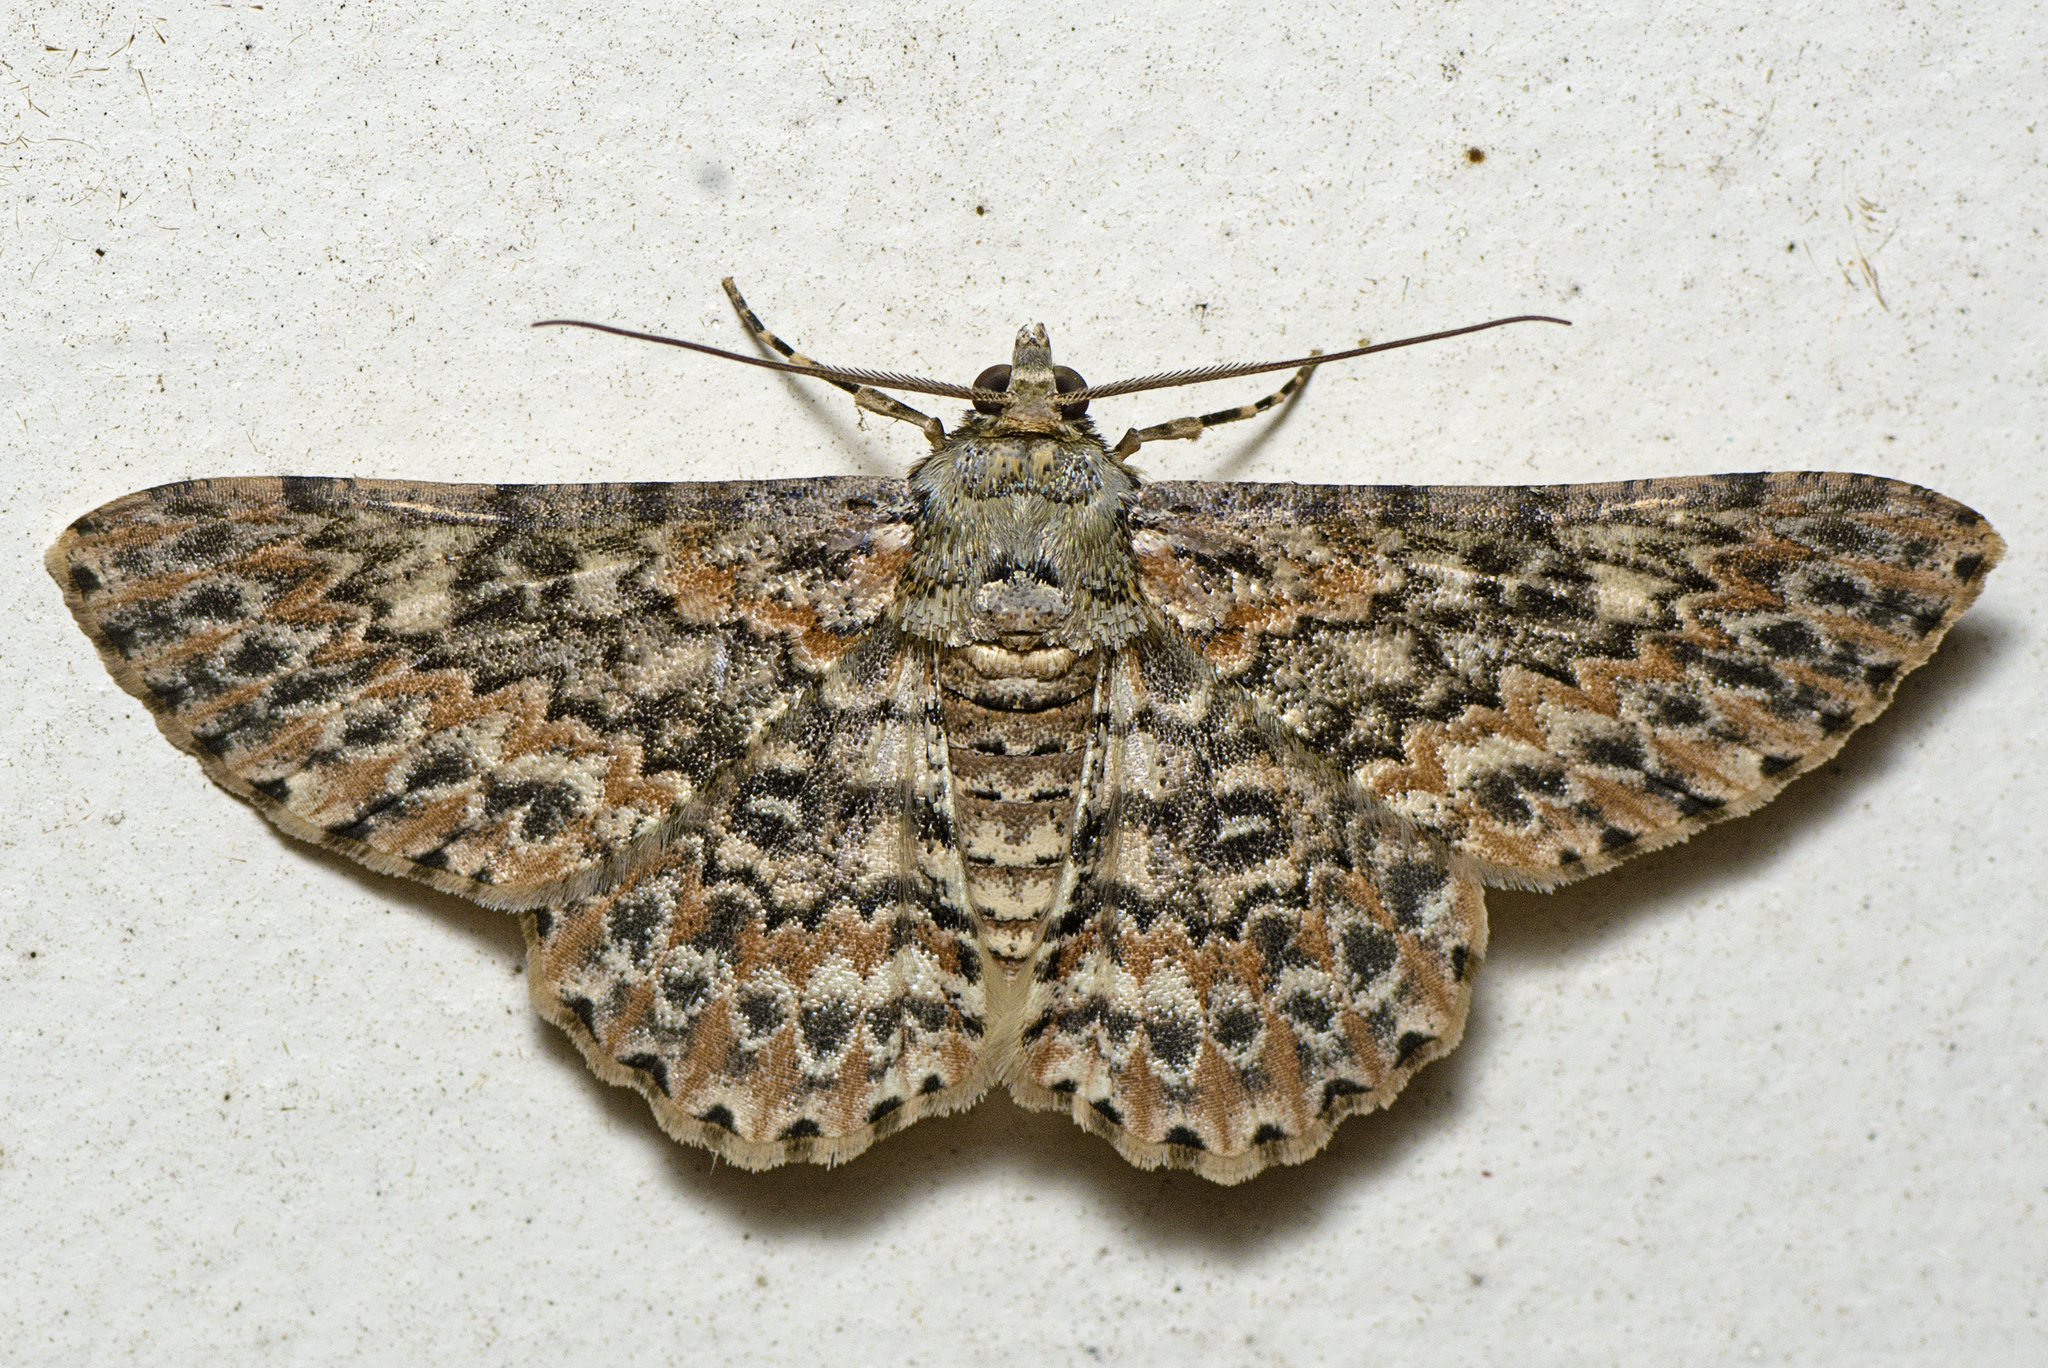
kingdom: Animalia
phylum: Arthropoda
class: Insecta
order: Lepidoptera
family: Geometridae
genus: Cleora
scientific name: Cleora sabulata
